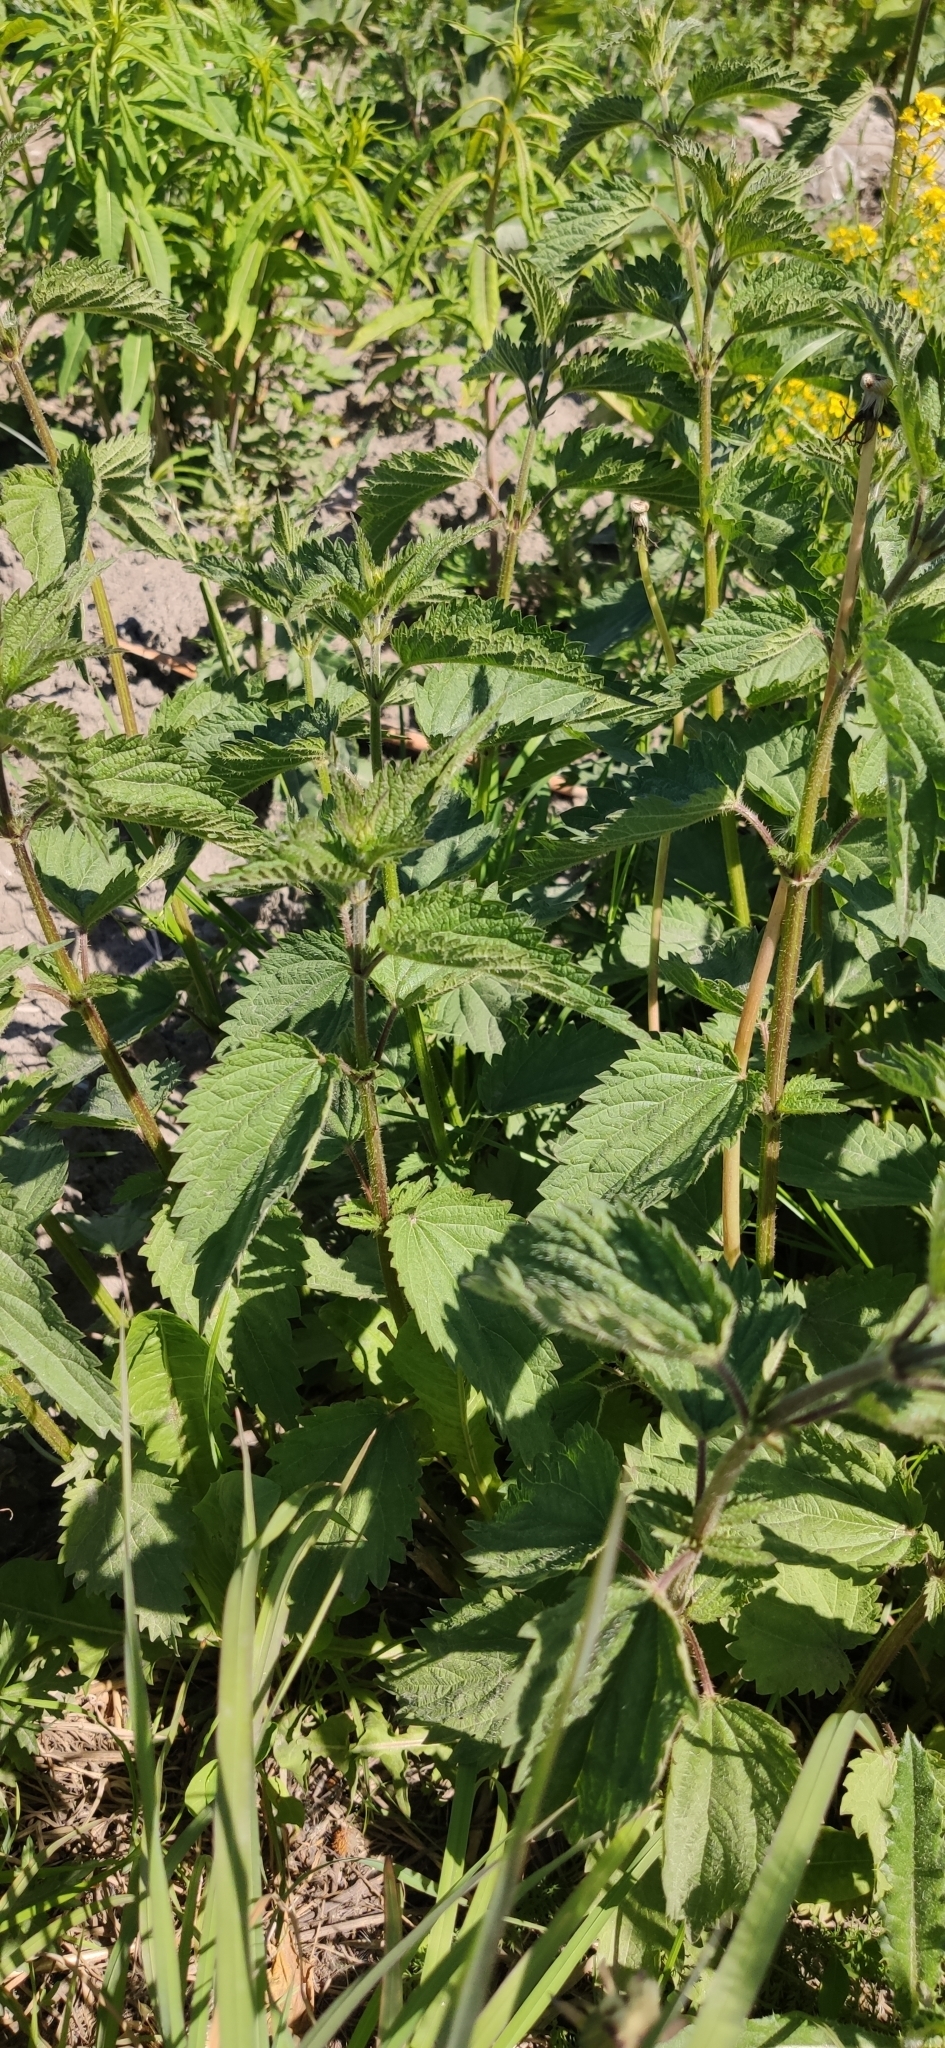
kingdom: Plantae
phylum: Tracheophyta
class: Magnoliopsida
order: Rosales
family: Urticaceae
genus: Urtica
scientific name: Urtica dioica
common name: Common nettle
